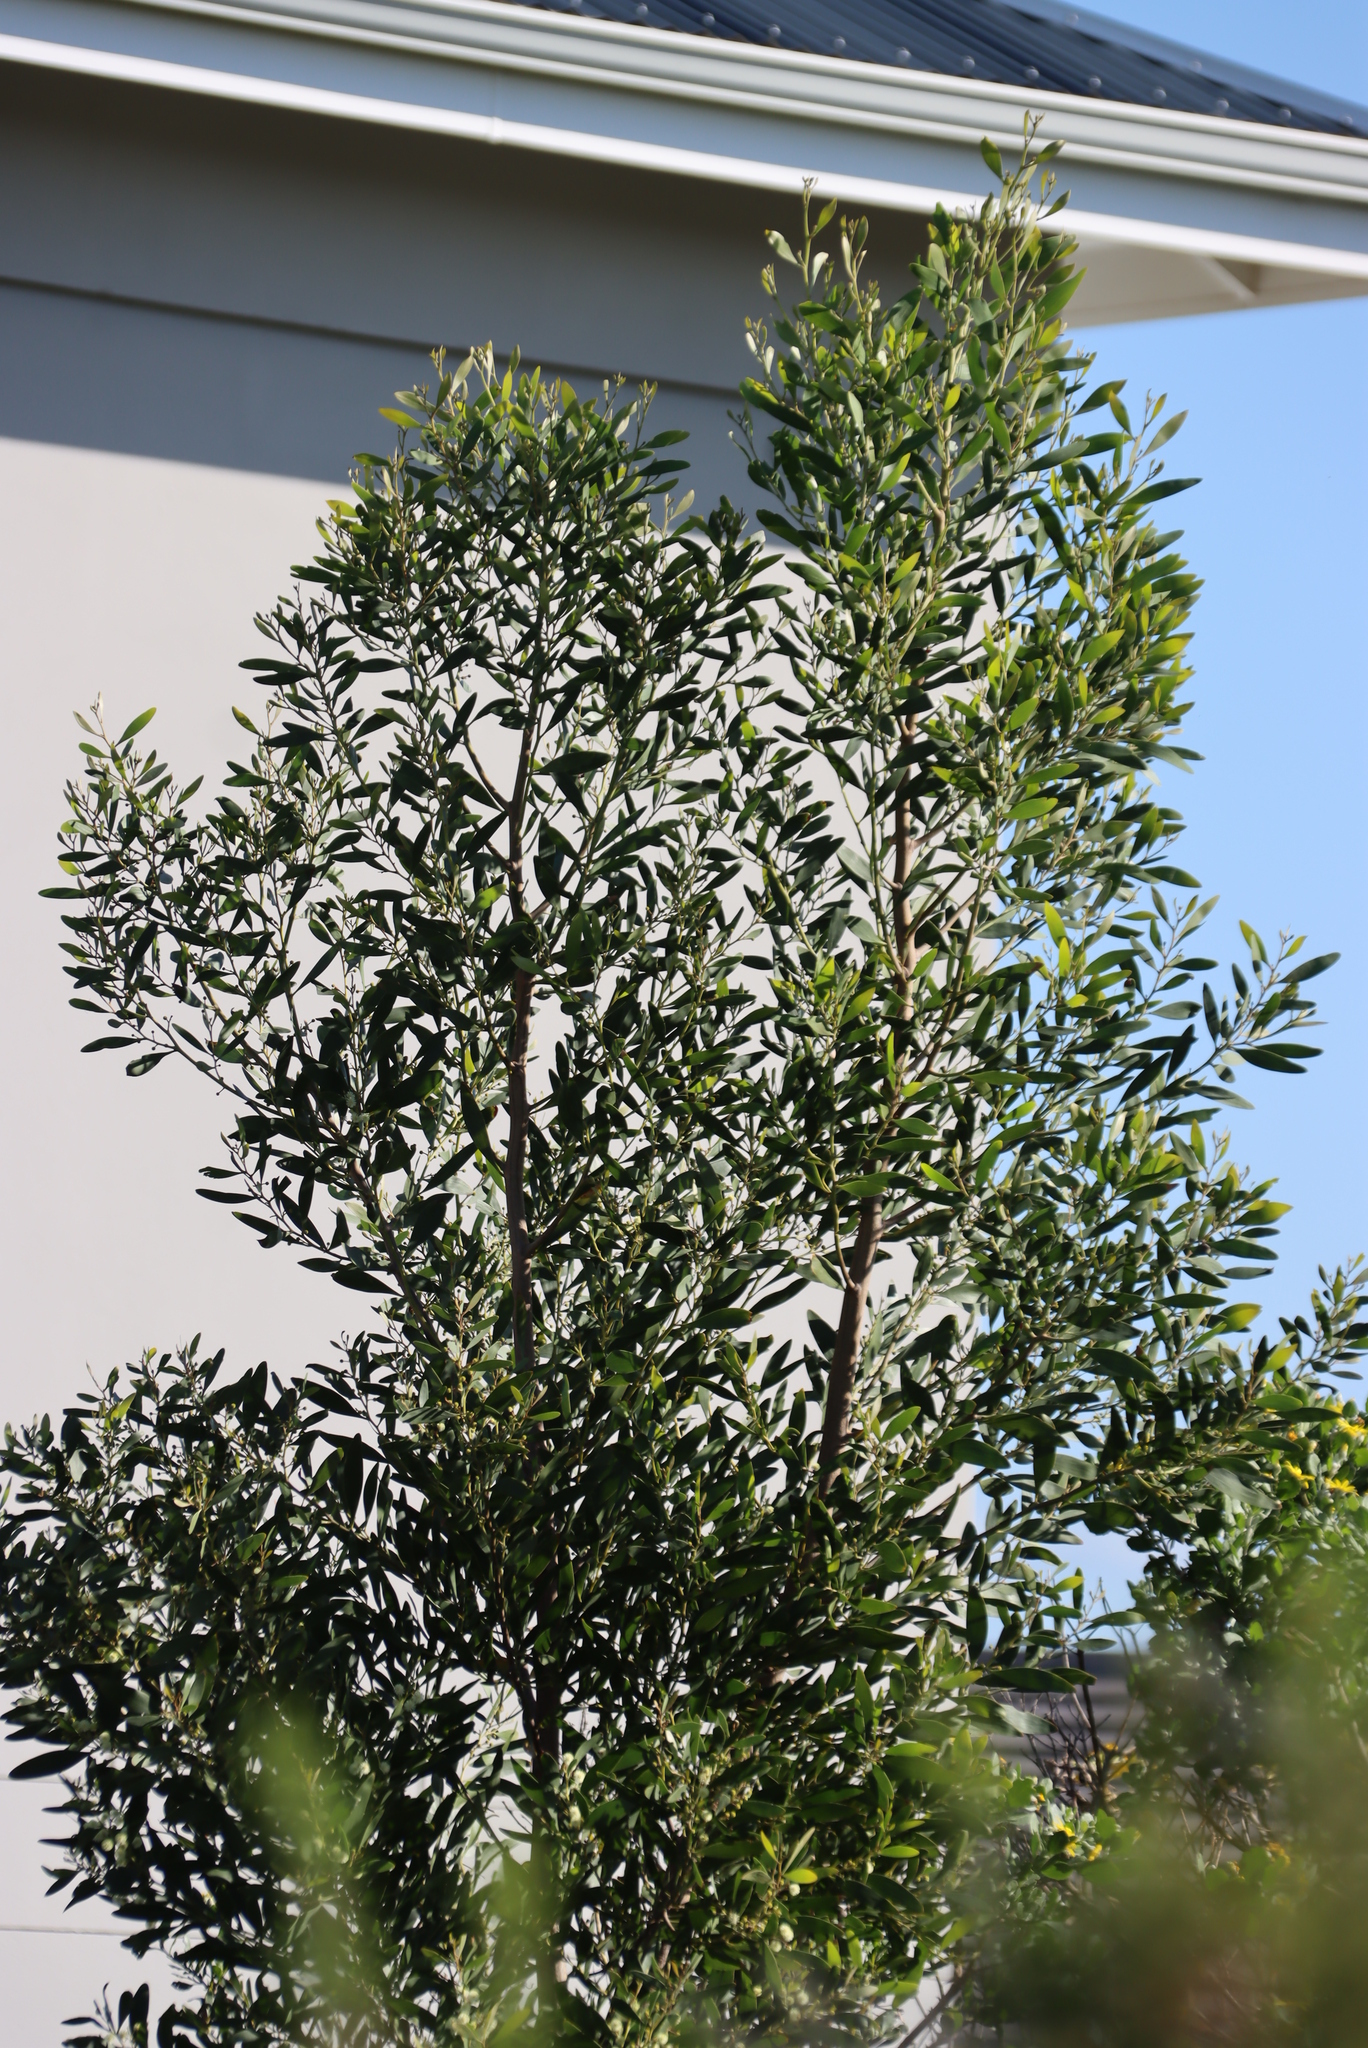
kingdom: Plantae
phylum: Tracheophyta
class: Magnoliopsida
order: Fabales
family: Fabaceae
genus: Acacia
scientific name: Acacia melanoxylon
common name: Blackwood
